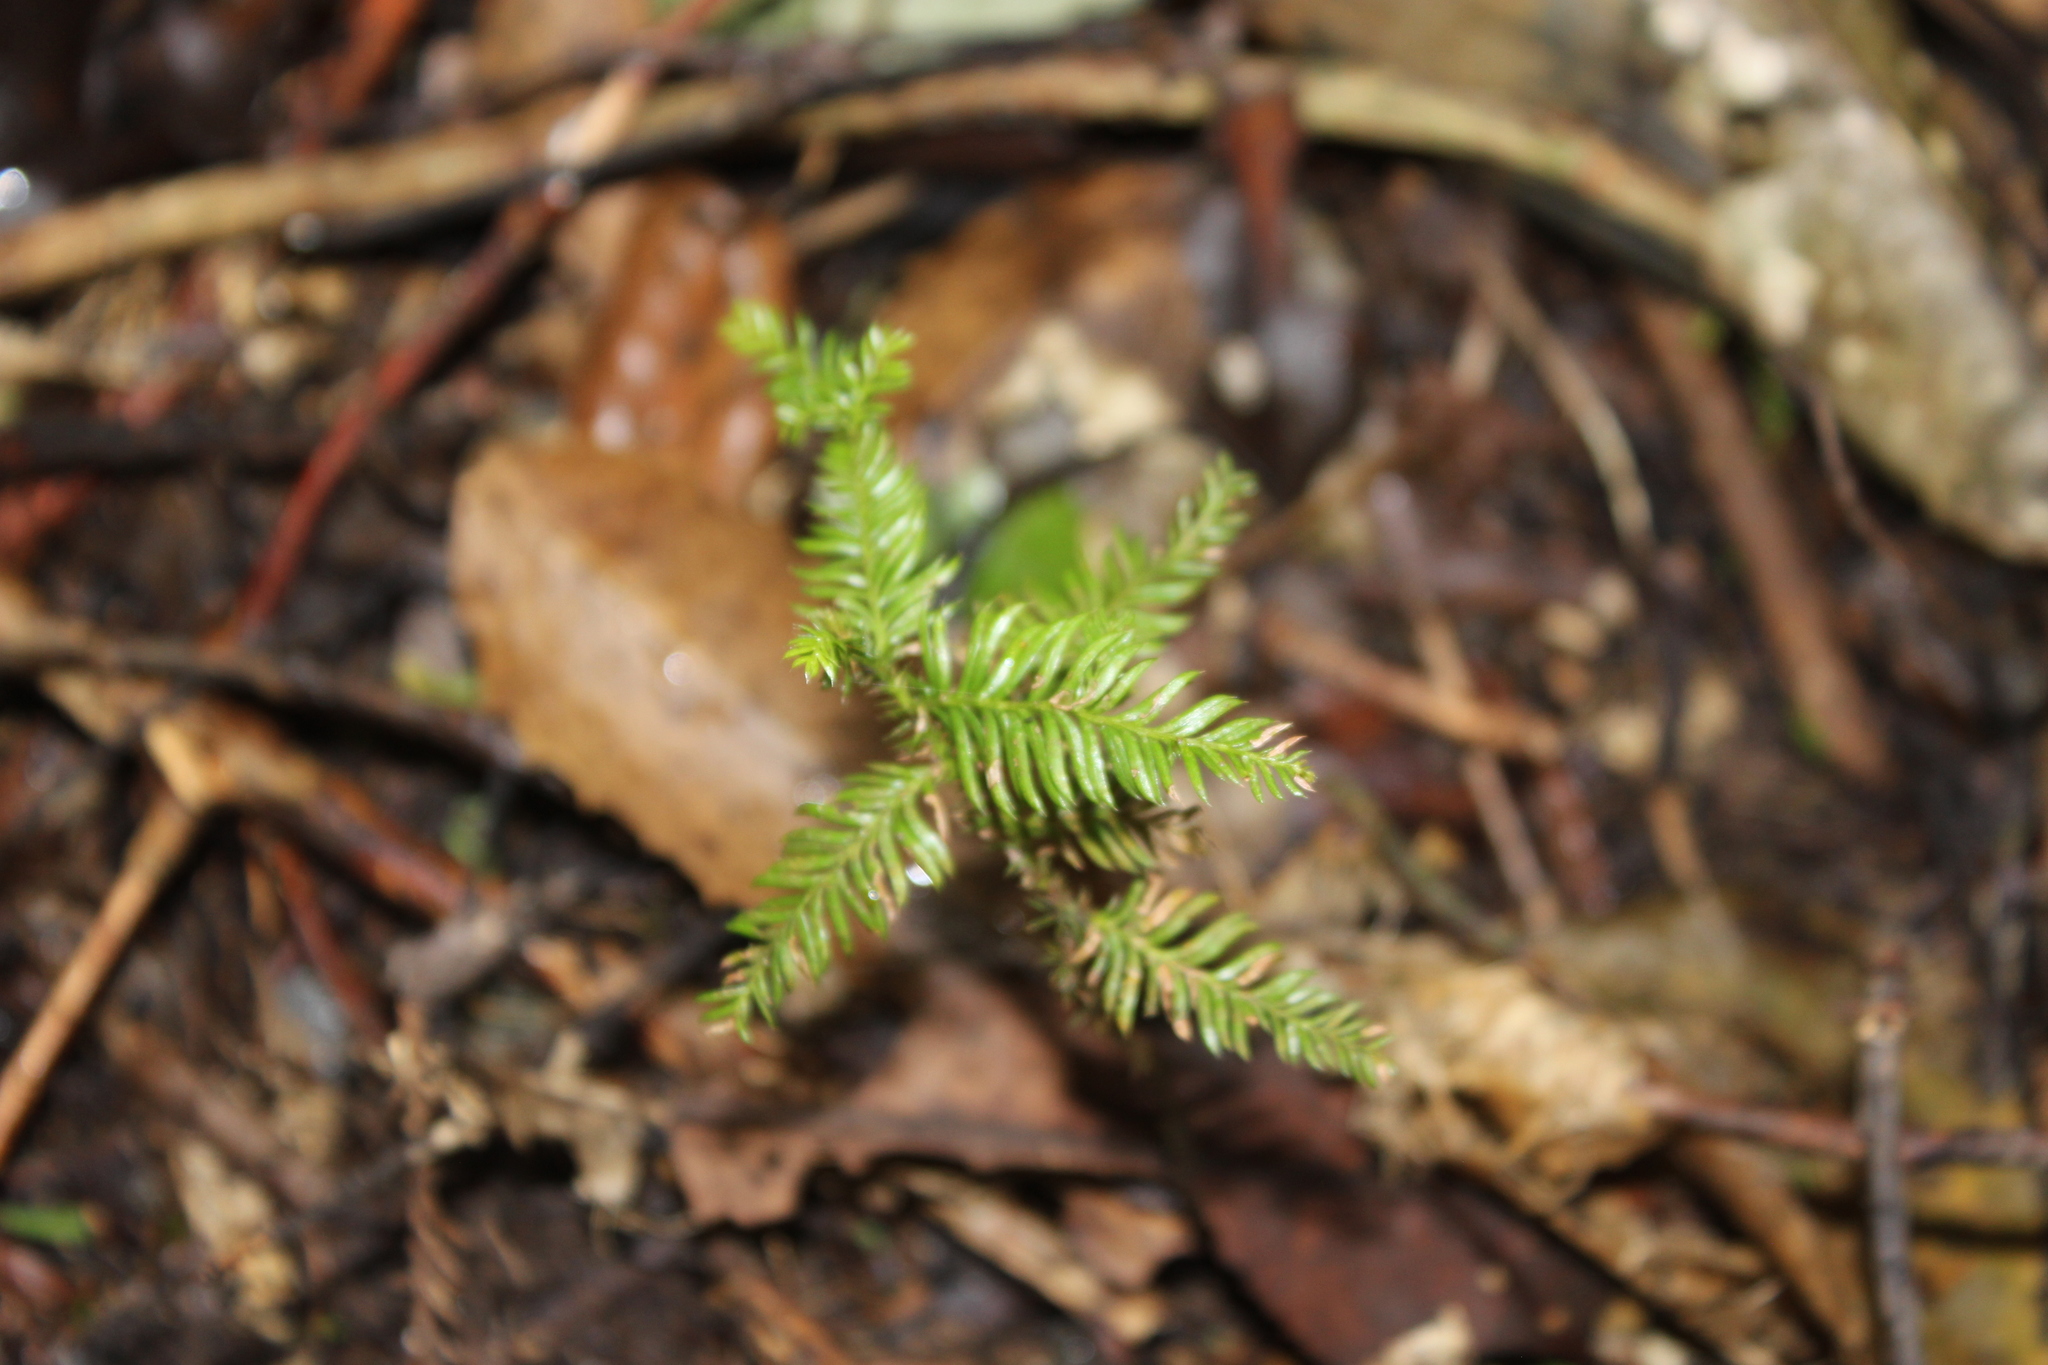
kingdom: Plantae
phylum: Tracheophyta
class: Pinopsida
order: Pinales
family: Podocarpaceae
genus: Dacrycarpus
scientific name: Dacrycarpus dacrydioides
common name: White pine
